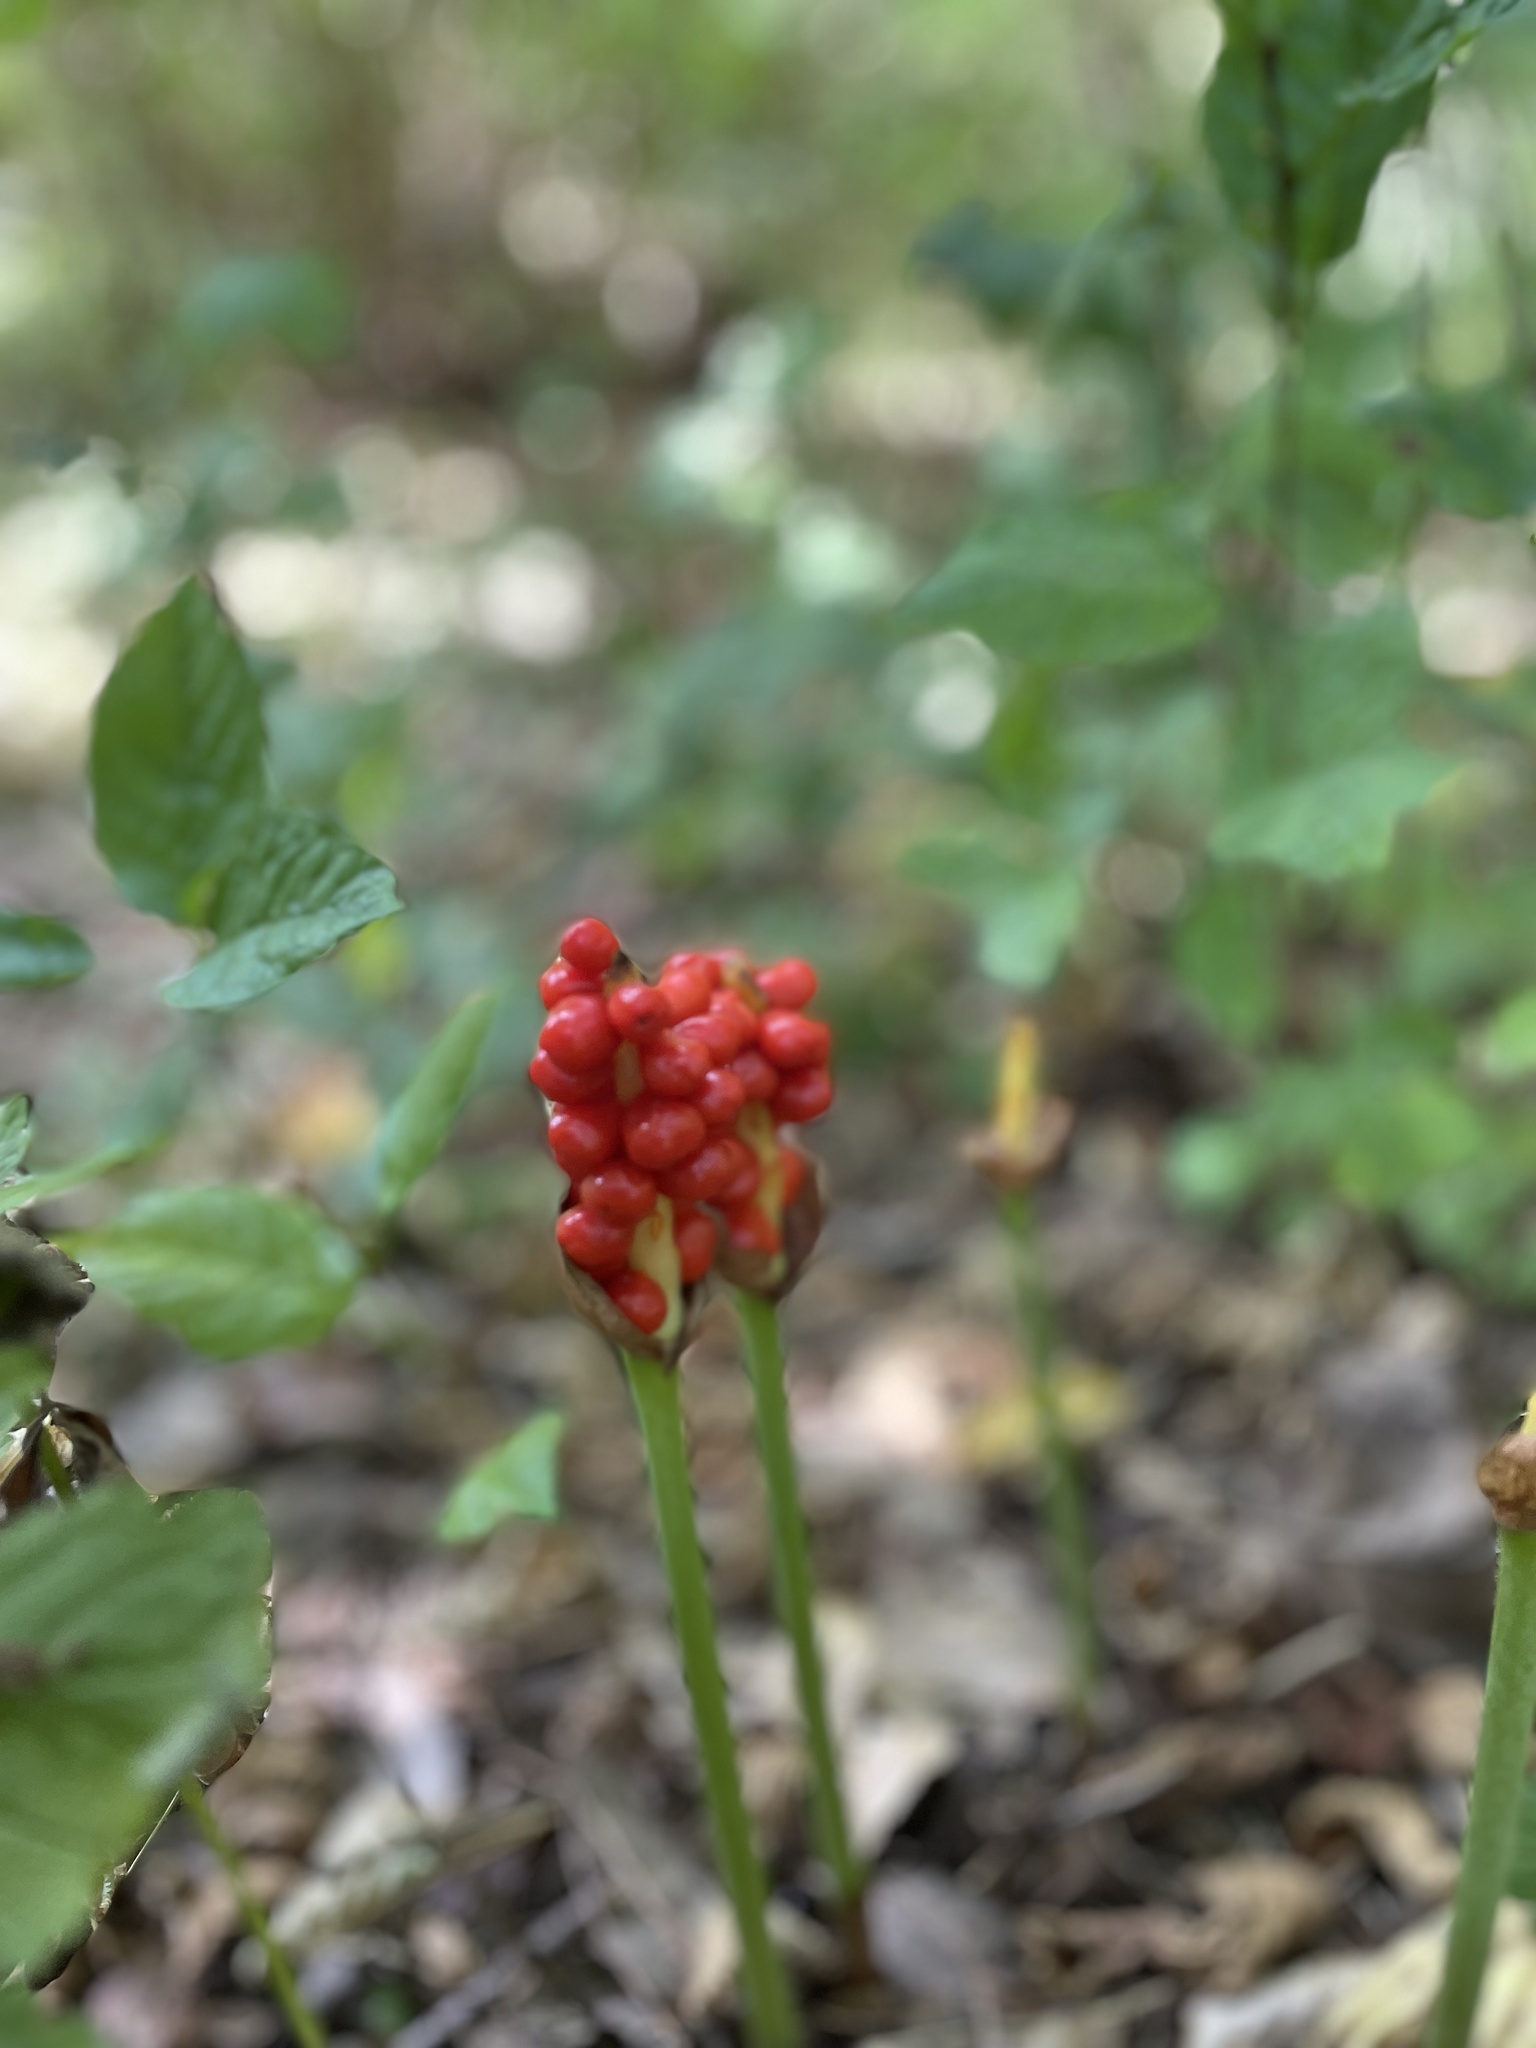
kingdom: Plantae
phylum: Tracheophyta
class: Liliopsida
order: Alismatales
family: Araceae
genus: Arum
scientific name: Arum maculatum
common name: Lords-and-ladies
